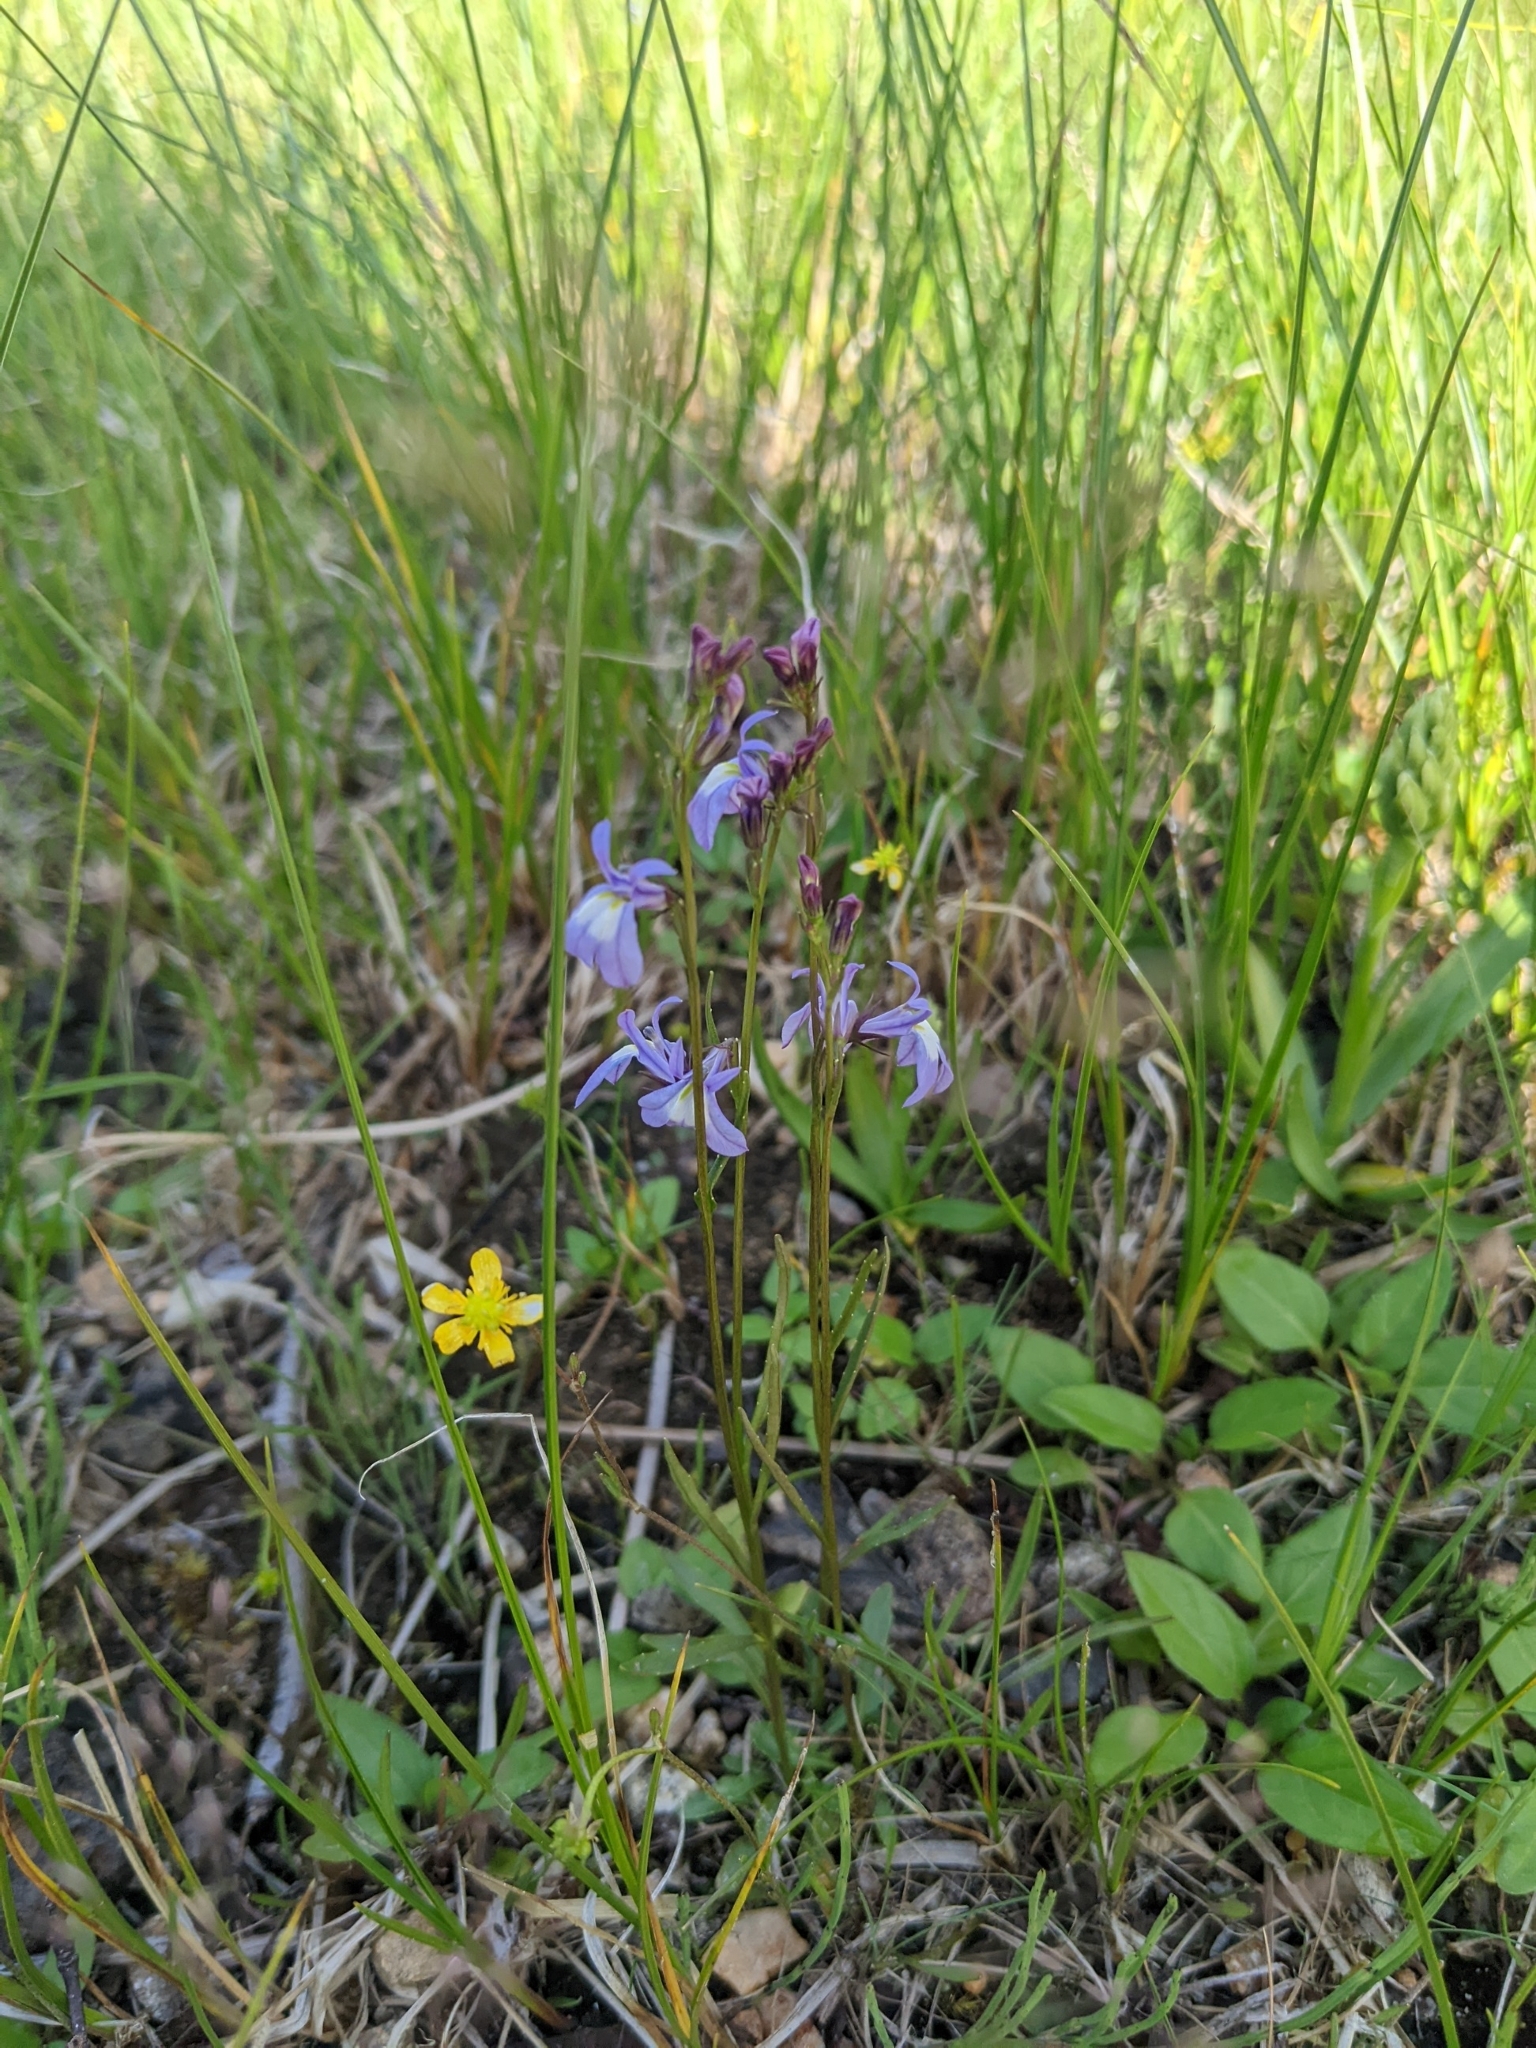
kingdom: Plantae
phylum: Tracheophyta
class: Magnoliopsida
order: Asterales
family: Campanulaceae
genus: Lobelia
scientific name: Lobelia kalmii
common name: Kalm's lobelia
